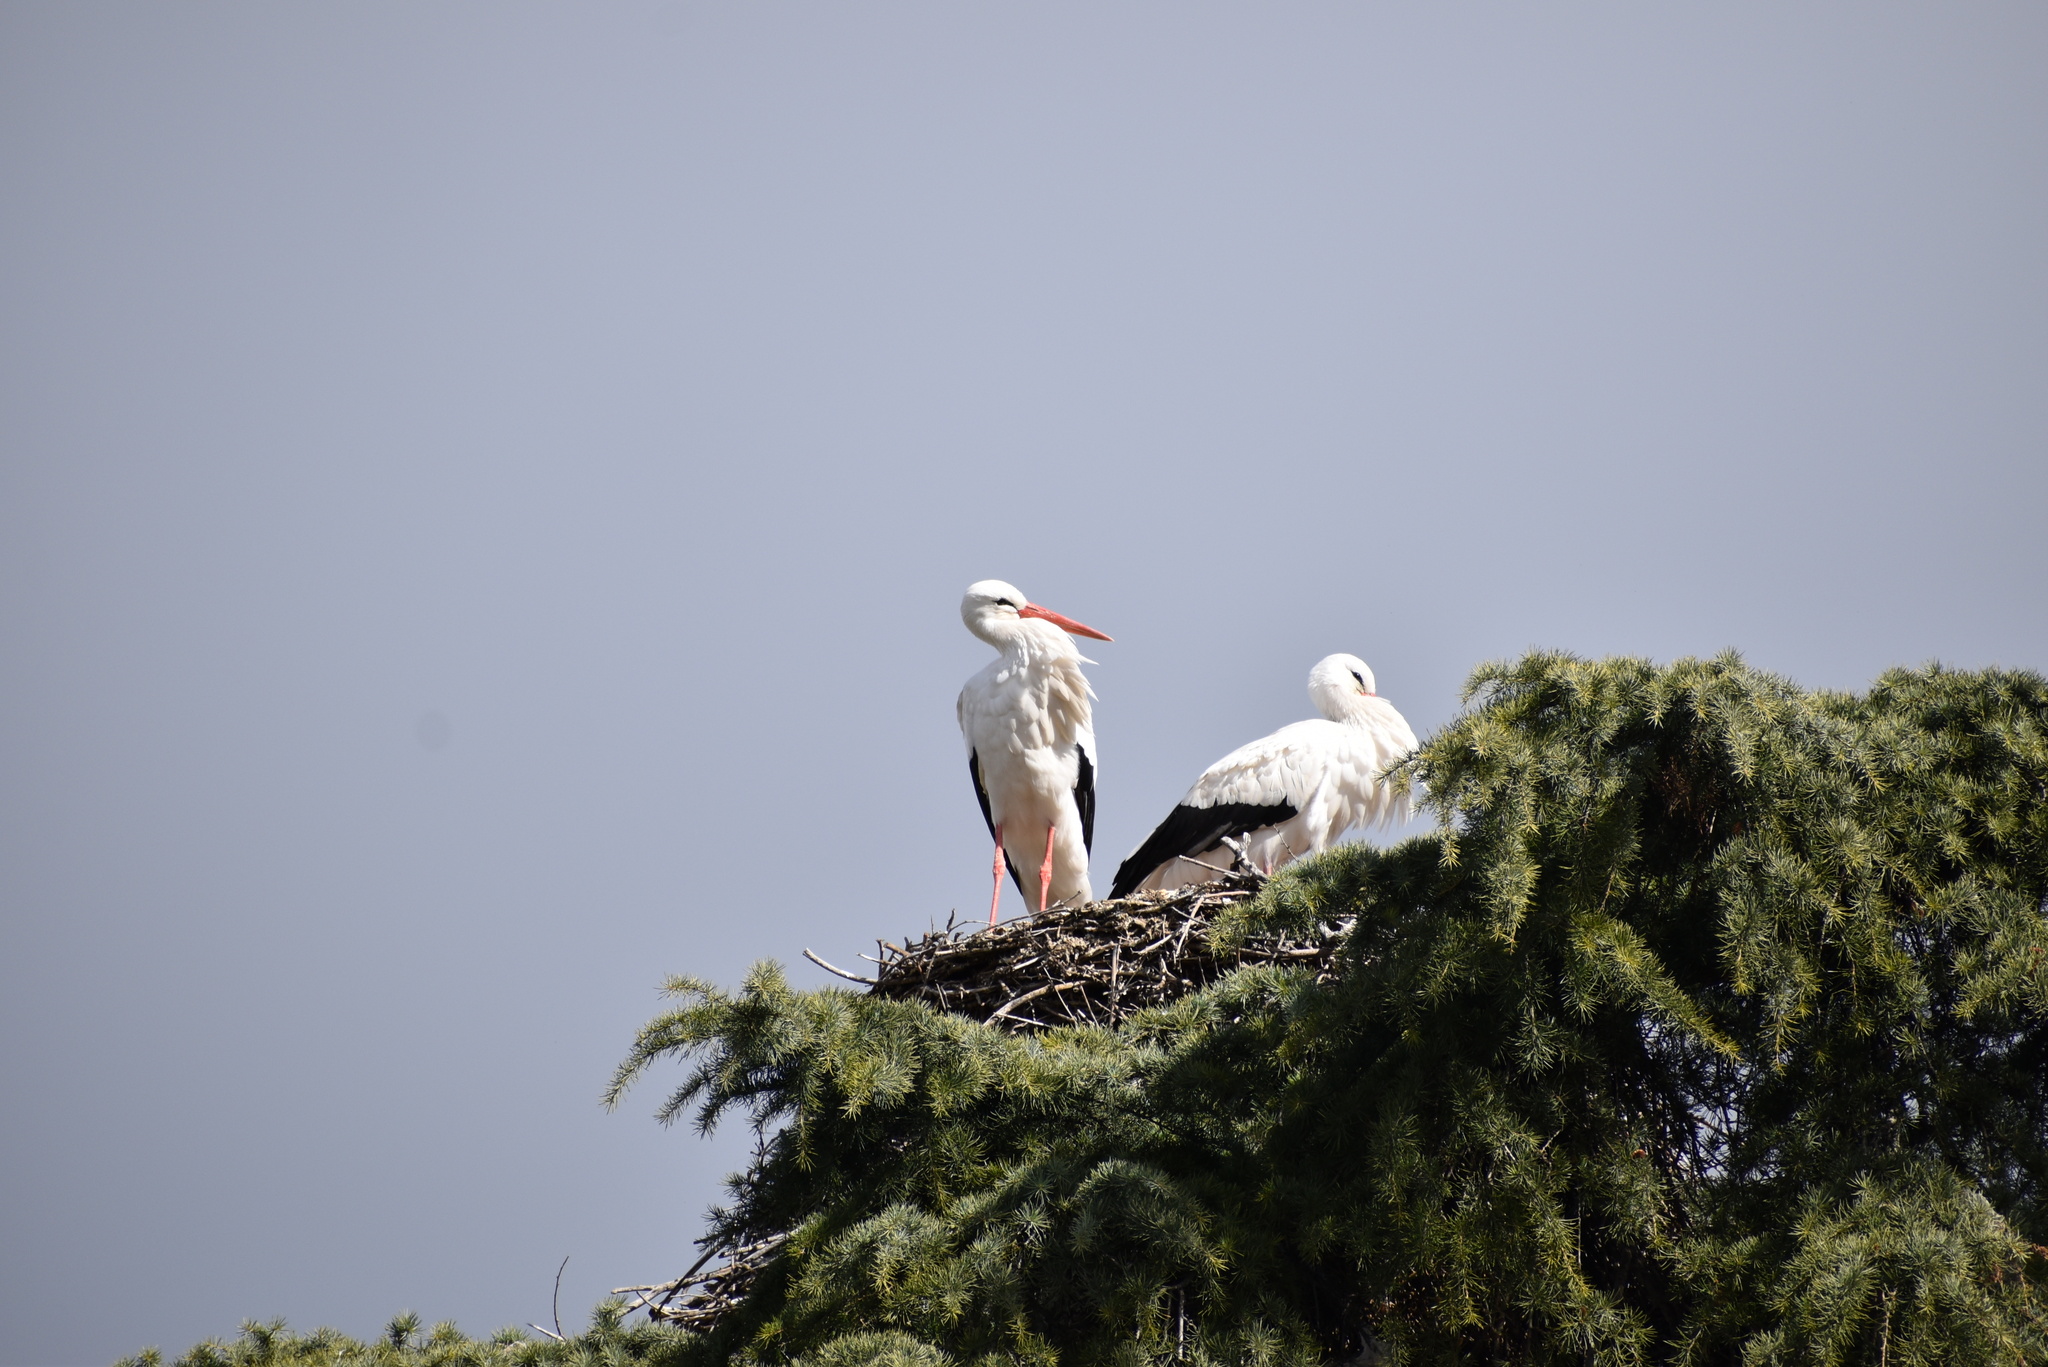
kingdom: Animalia
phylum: Chordata
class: Aves
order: Ciconiiformes
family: Ciconiidae
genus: Ciconia
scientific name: Ciconia ciconia
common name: White stork
